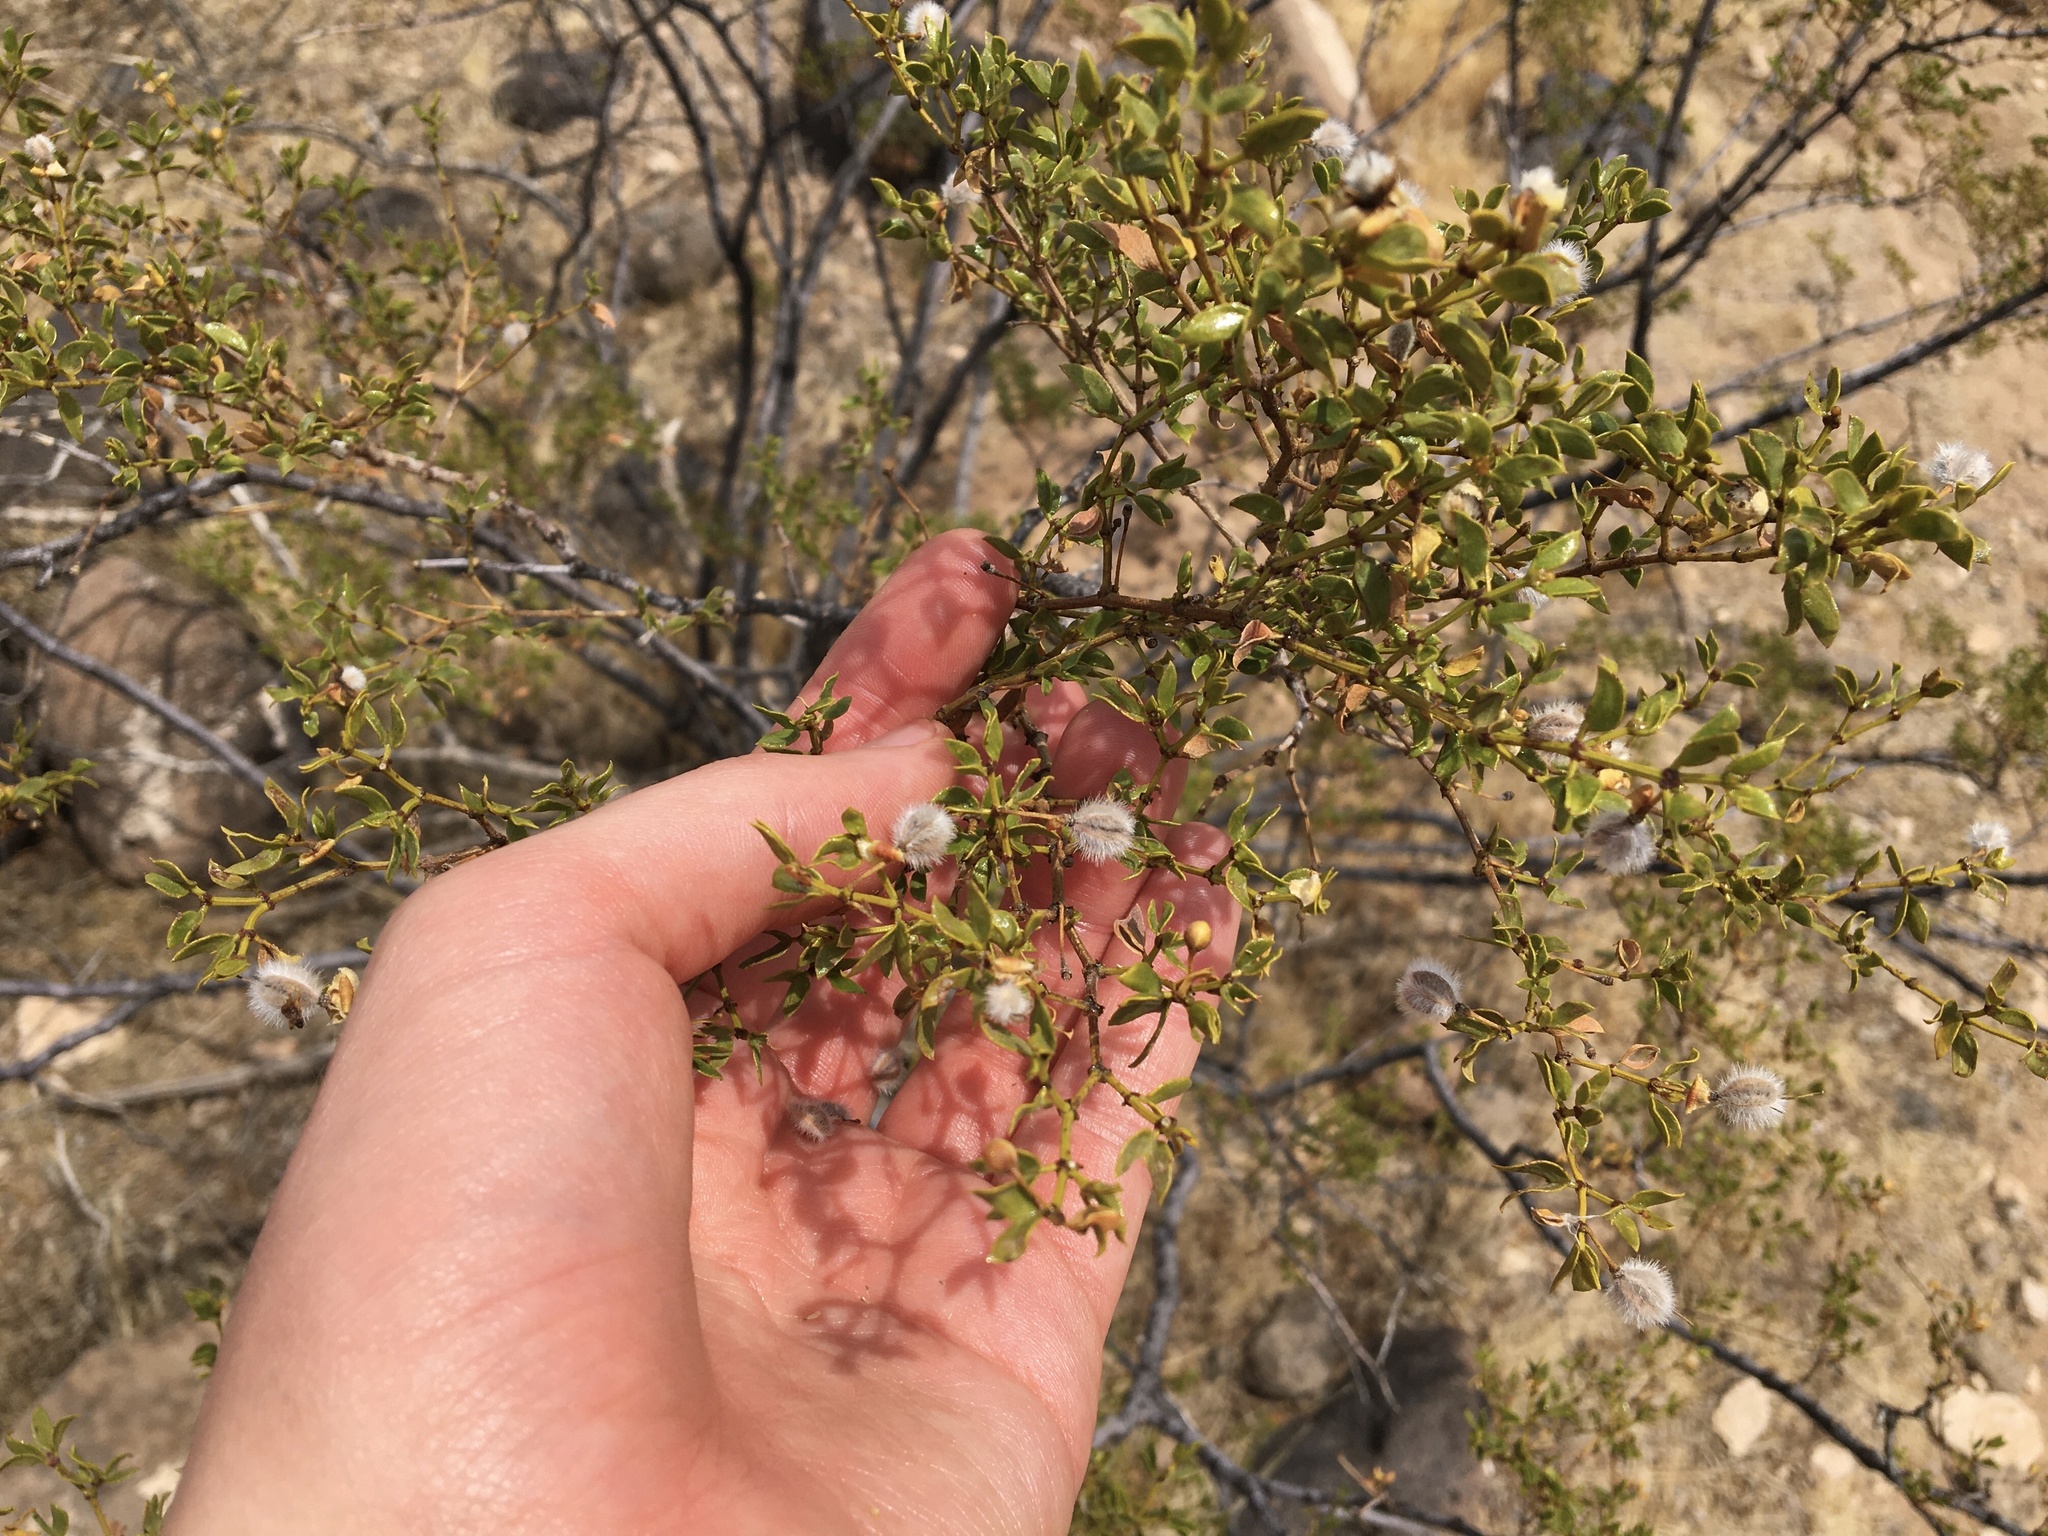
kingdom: Plantae
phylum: Tracheophyta
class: Magnoliopsida
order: Zygophyllales
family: Zygophyllaceae
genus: Larrea
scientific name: Larrea tridentata
